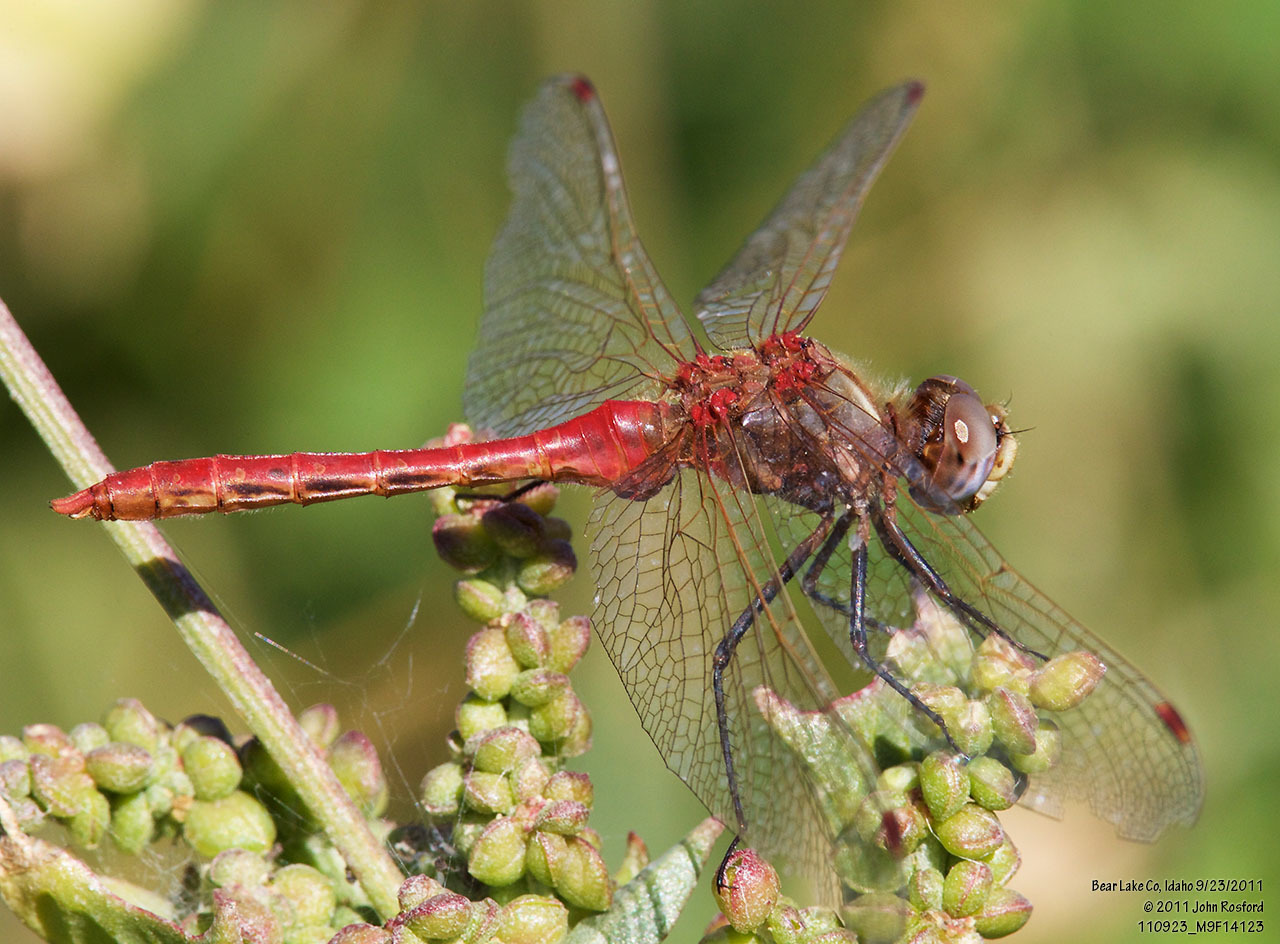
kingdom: Animalia
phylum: Arthropoda
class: Insecta
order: Odonata
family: Libellulidae
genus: Sympetrum
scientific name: Sympetrum pallipes
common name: Striped meadowhawk
